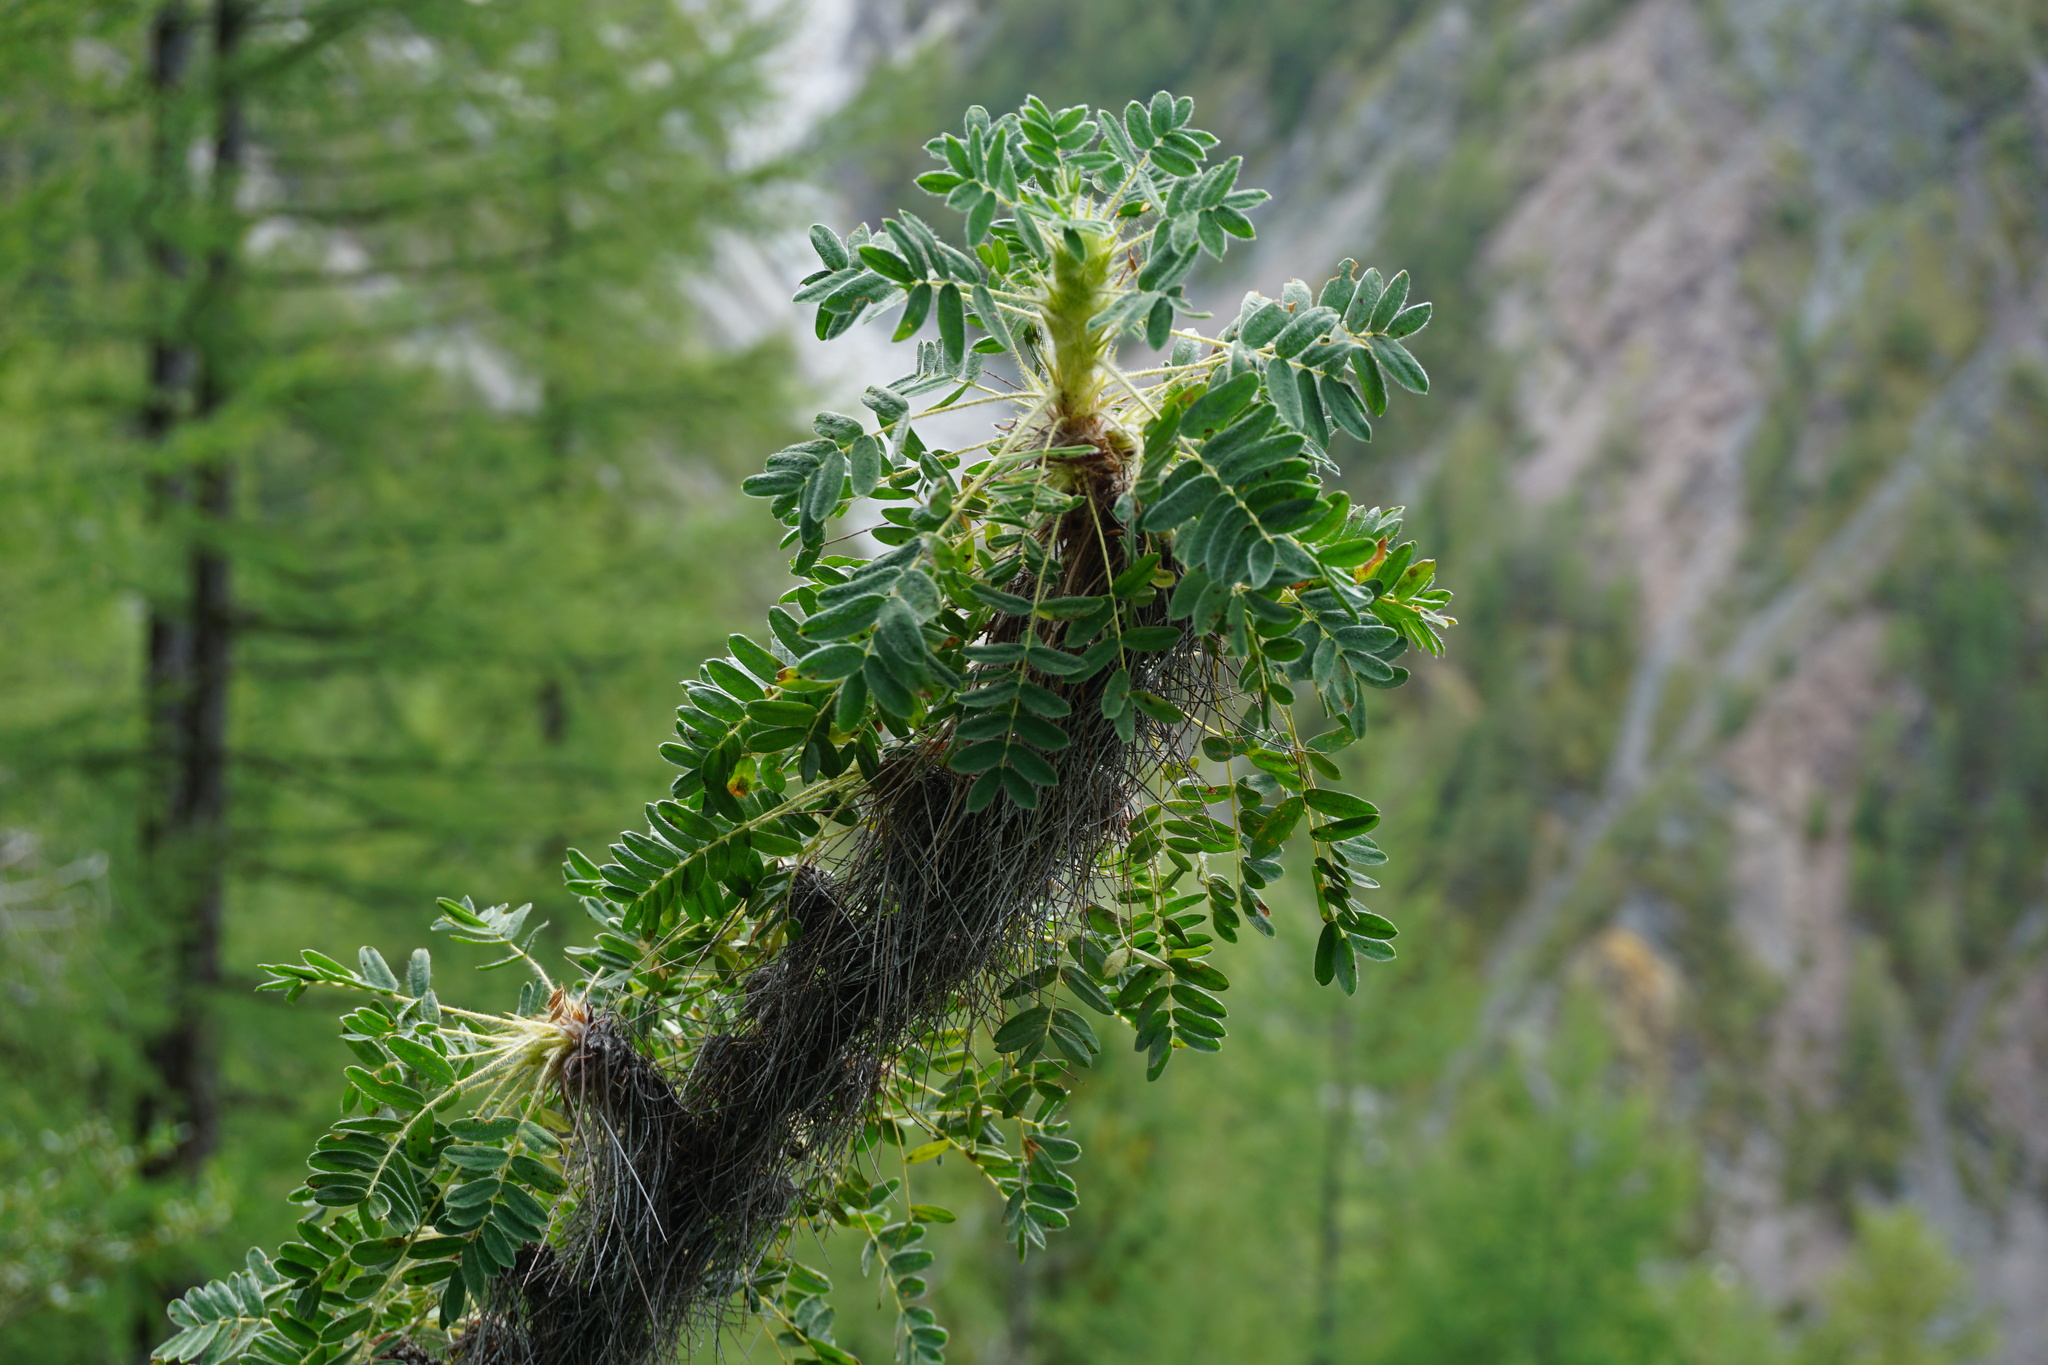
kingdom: Plantae
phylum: Tracheophyta
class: Magnoliopsida
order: Fabales
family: Fabaceae
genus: Caragana
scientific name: Caragana jubata
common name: Shag-spine peashrub
